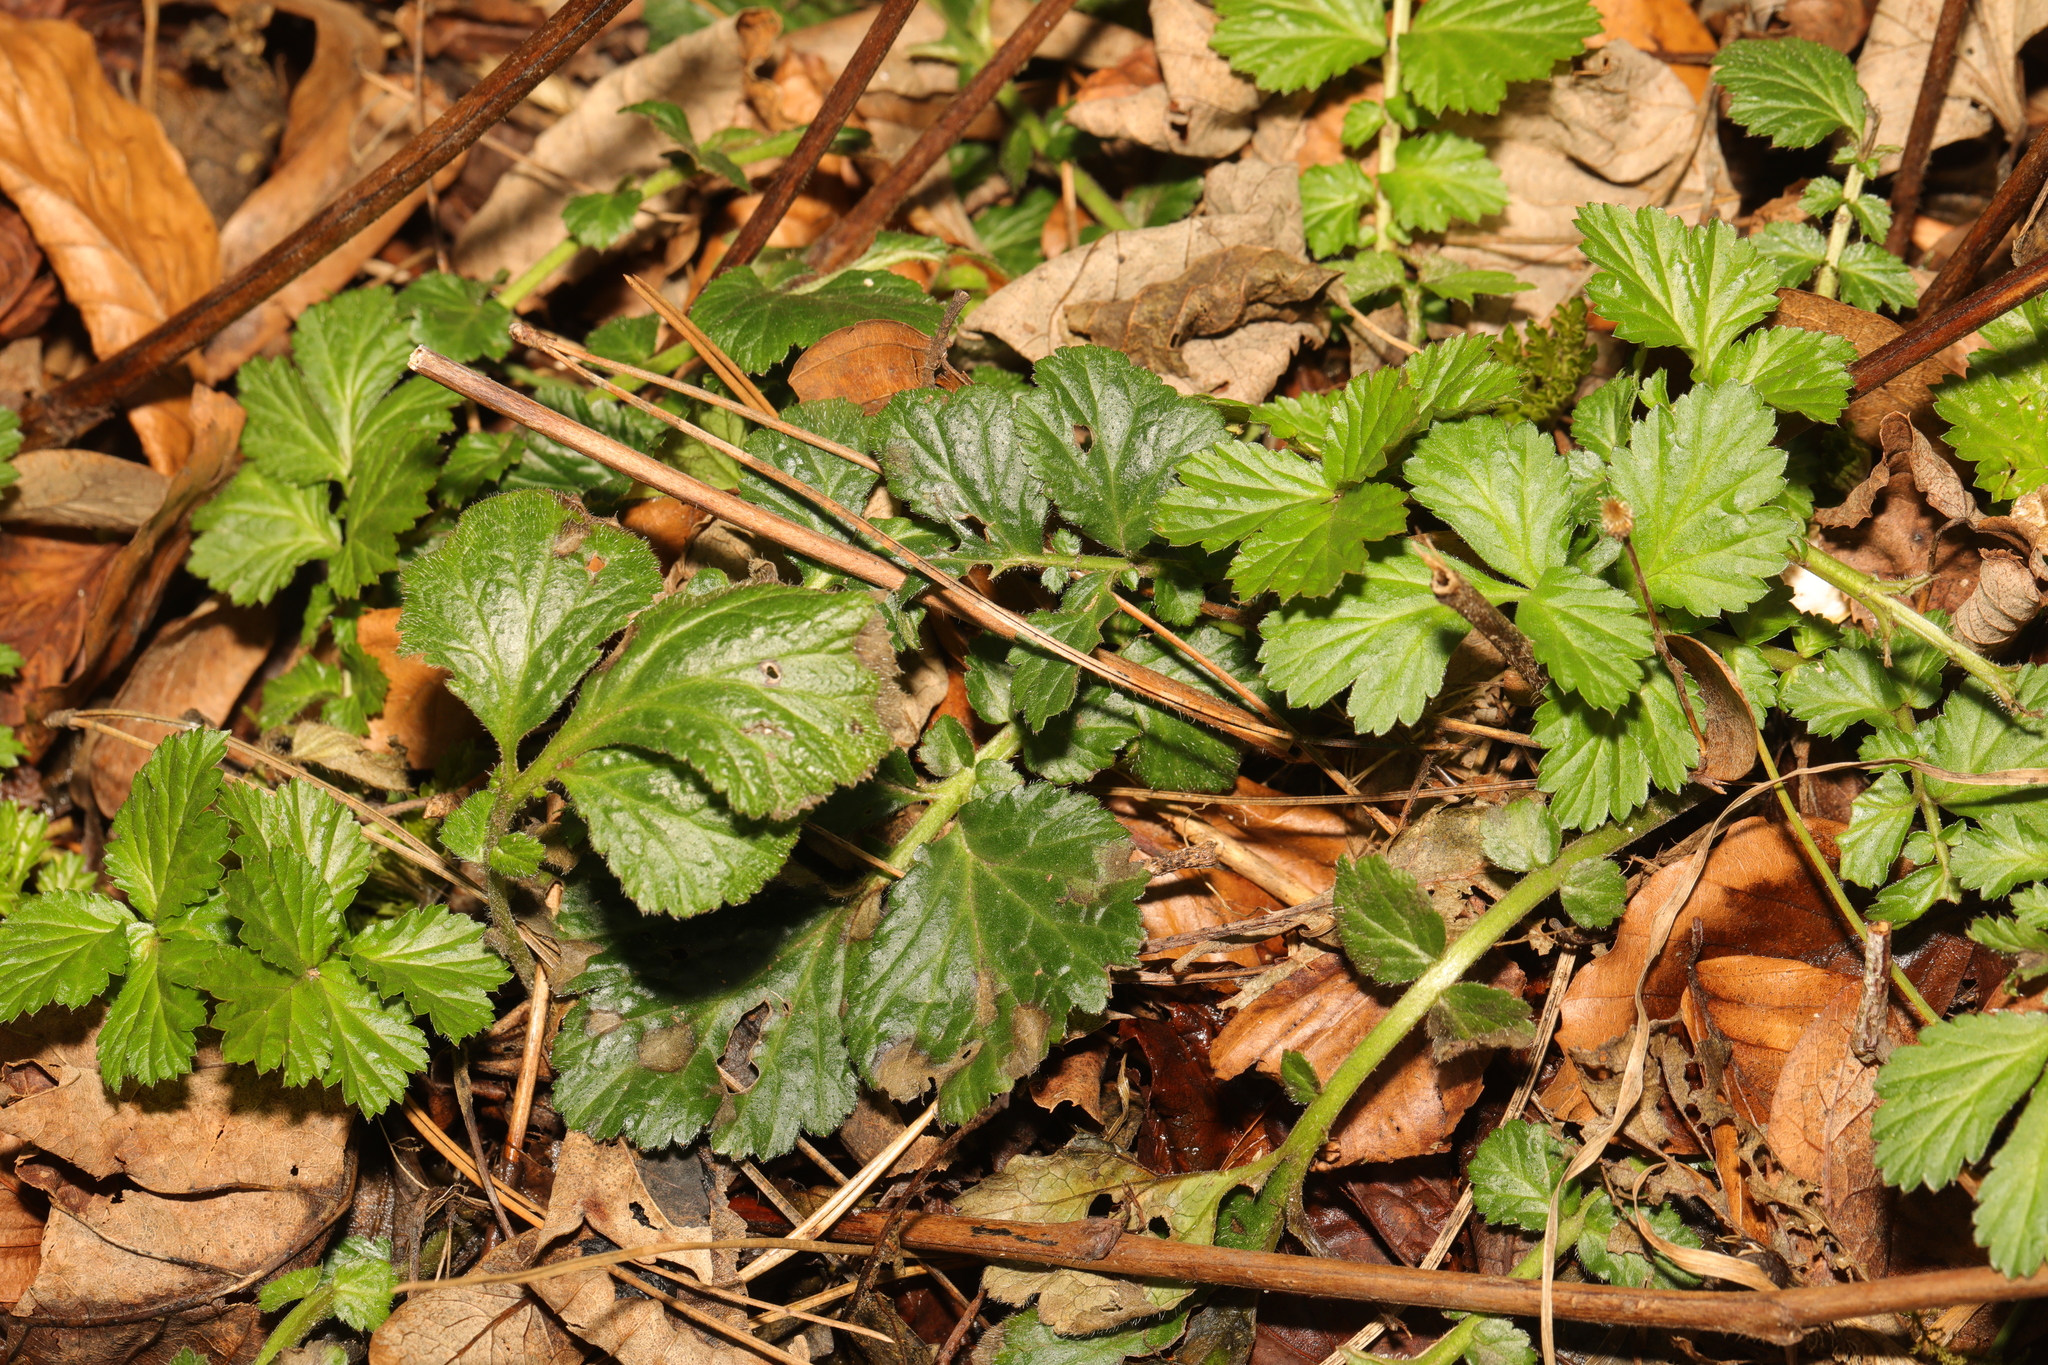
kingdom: Plantae
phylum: Tracheophyta
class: Magnoliopsida
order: Rosales
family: Rosaceae
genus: Geum
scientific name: Geum urbanum
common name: Wood avens
